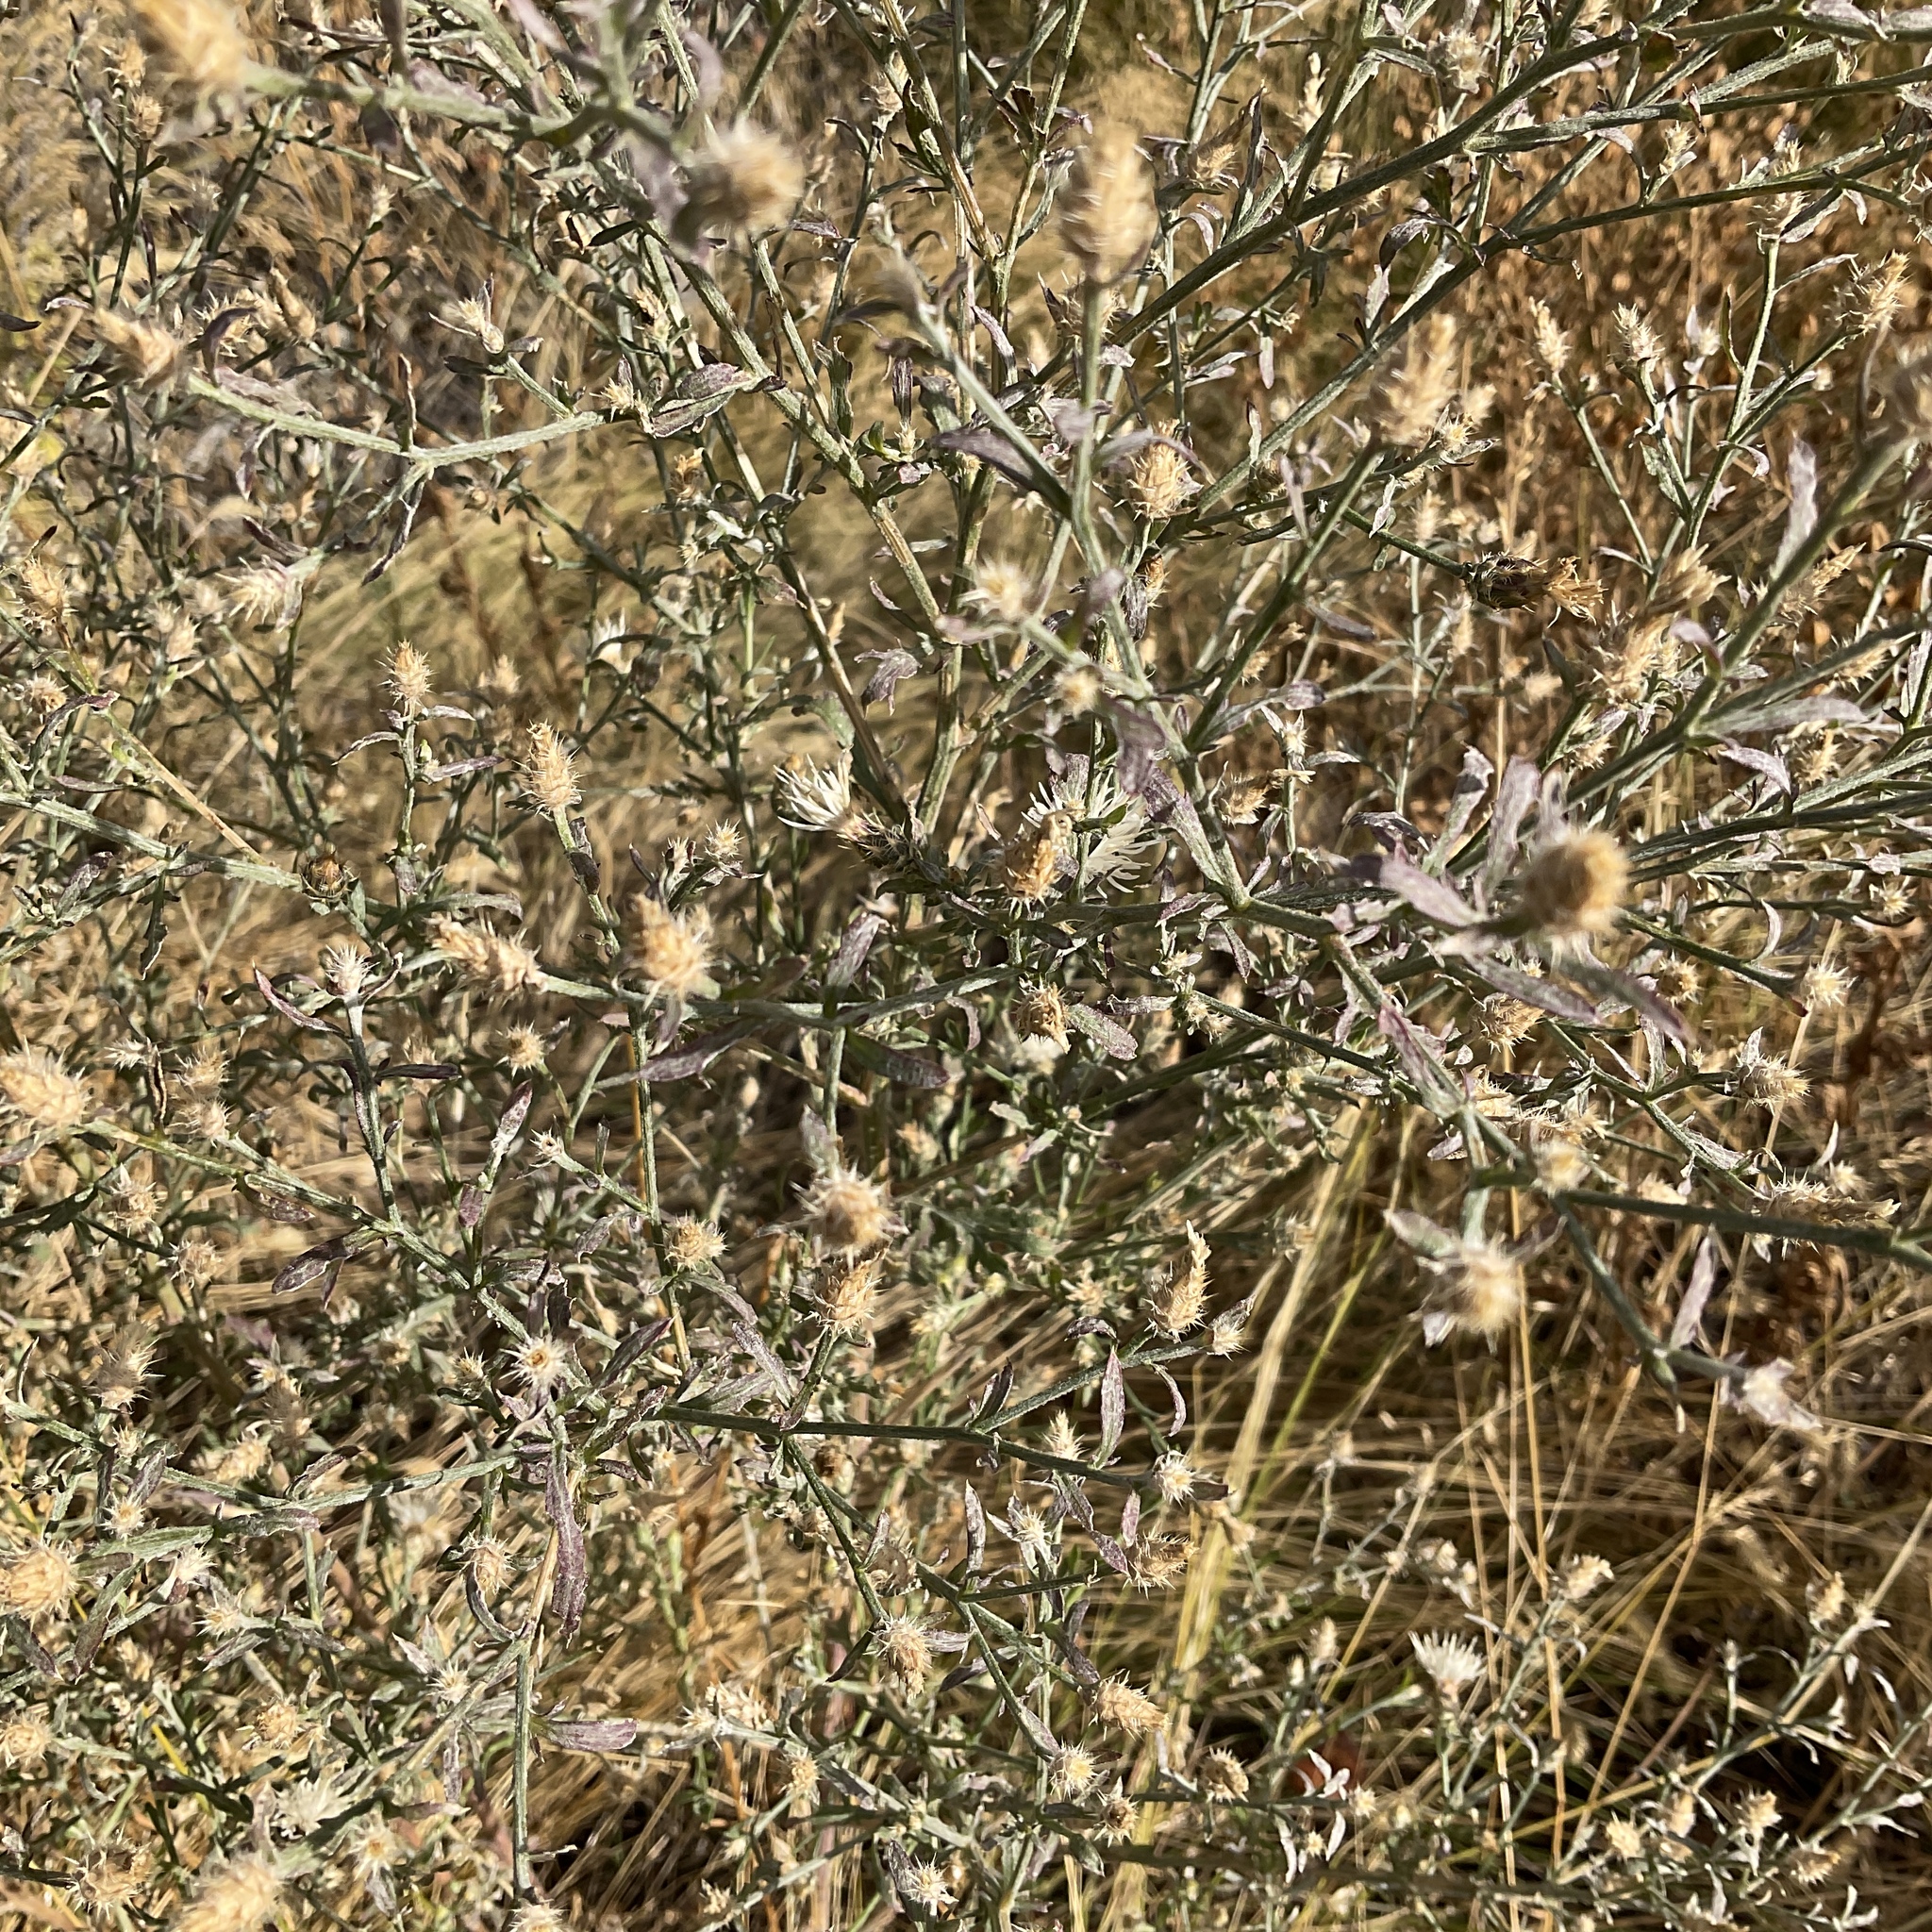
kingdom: Plantae
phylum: Tracheophyta
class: Magnoliopsida
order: Asterales
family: Asteraceae
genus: Centaurea
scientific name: Centaurea diffusa
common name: Diffuse knapweed
